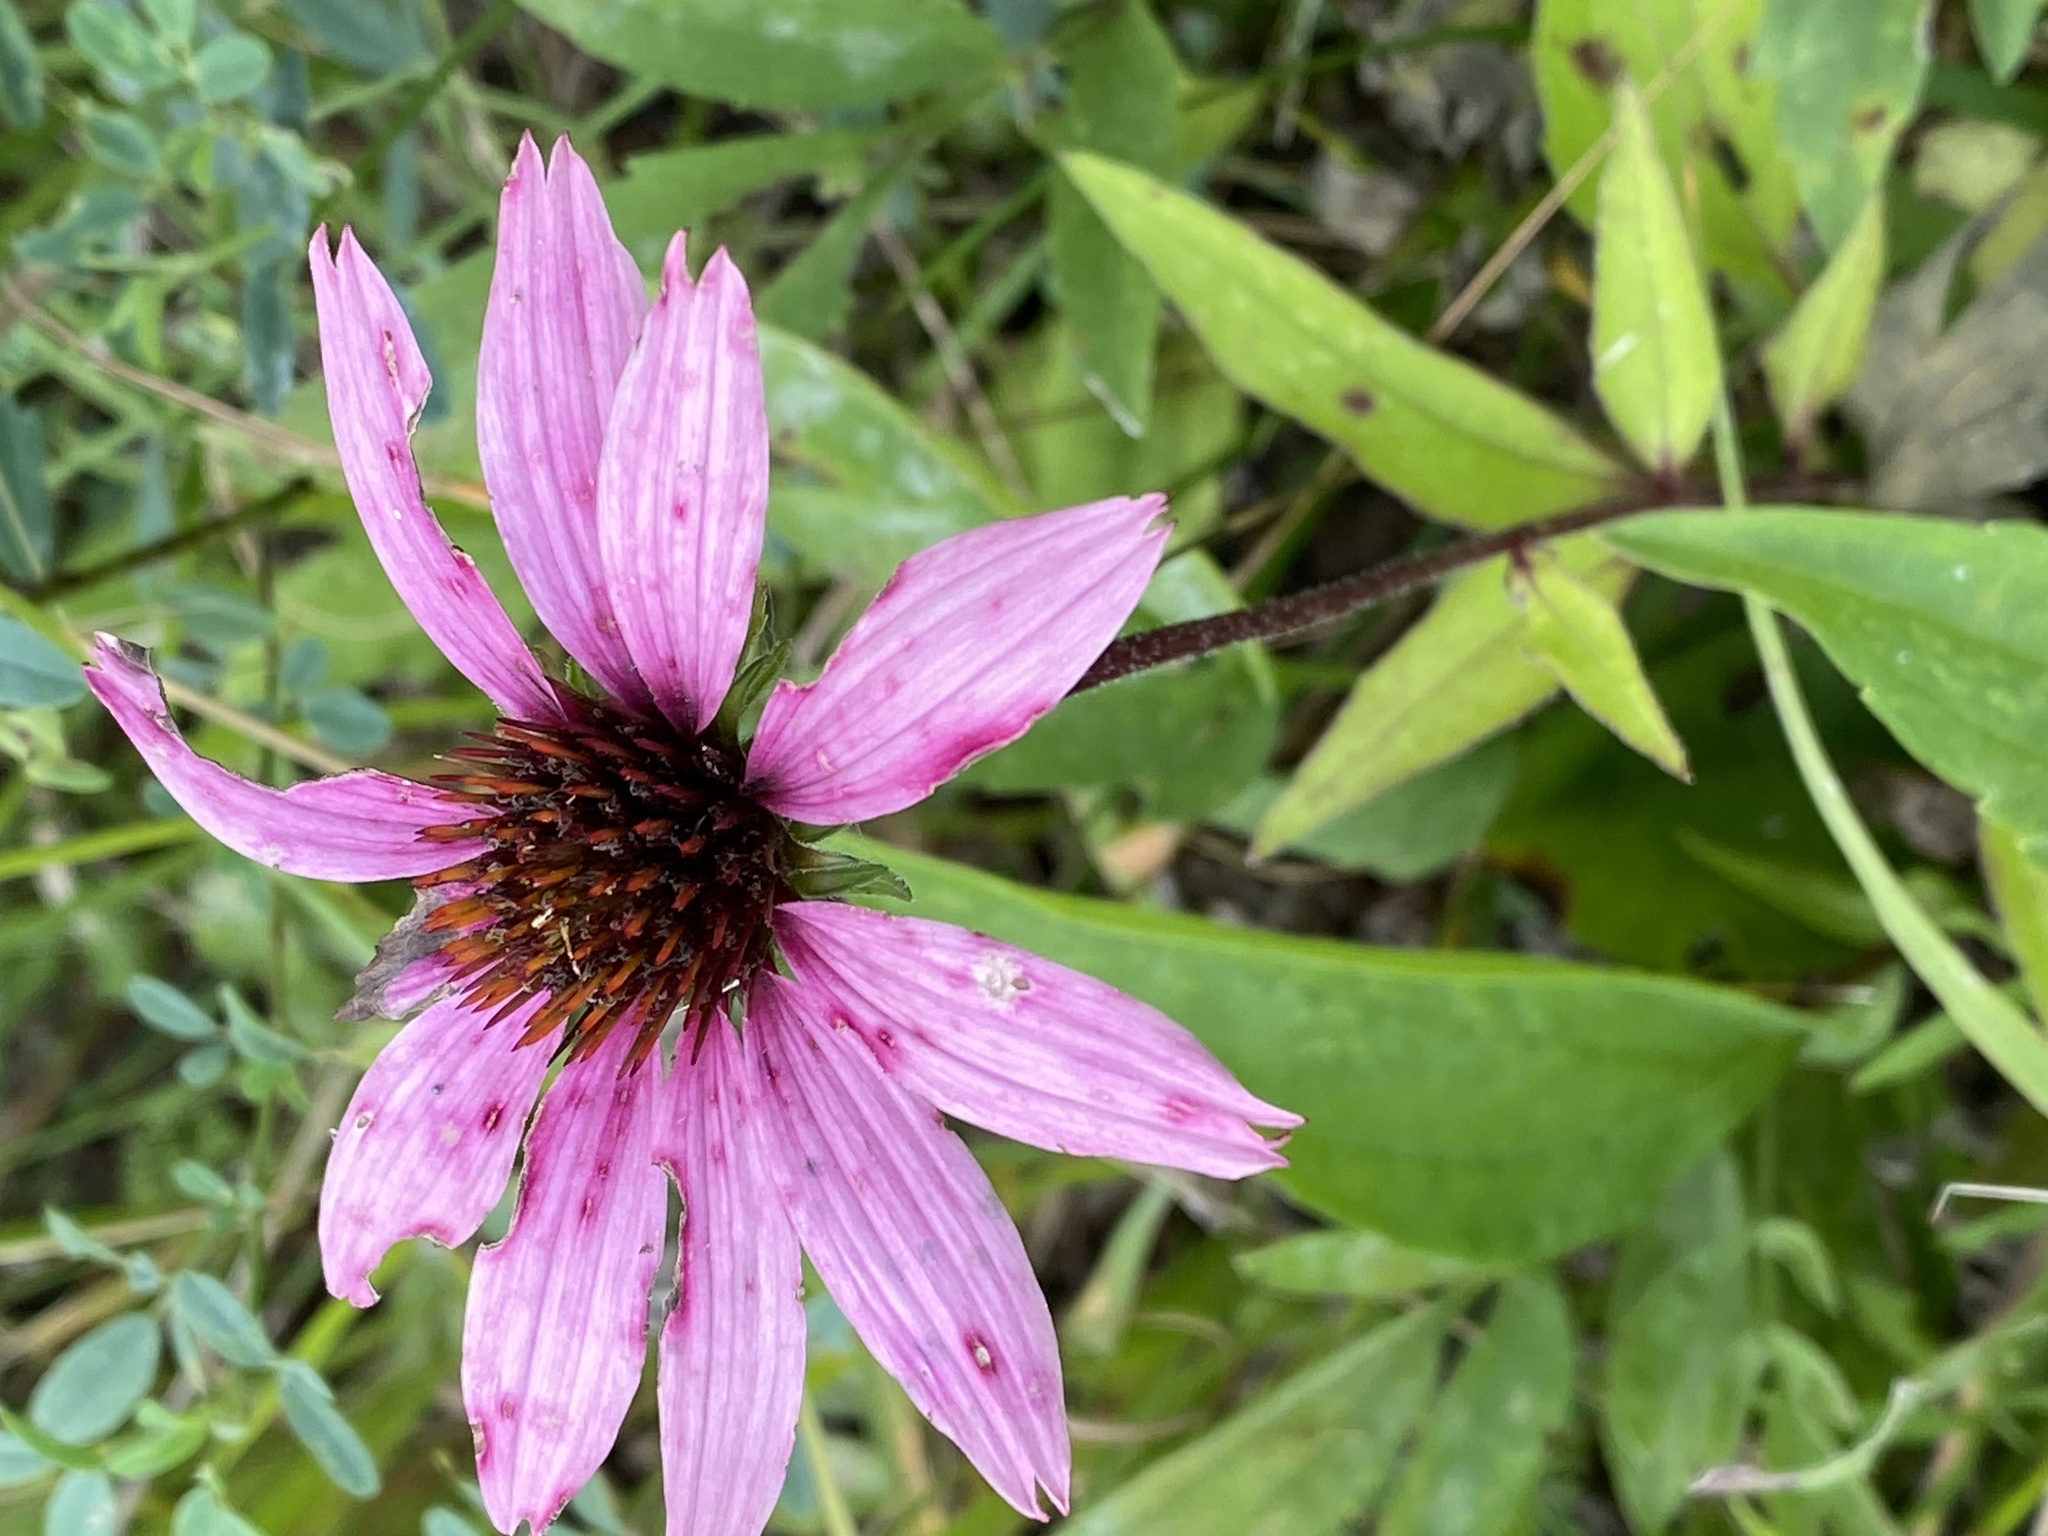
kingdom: Plantae
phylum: Tracheophyta
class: Magnoliopsida
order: Asterales
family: Asteraceae
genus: Echinacea
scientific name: Echinacea purpurea
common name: Broad-leaved purple coneflower
